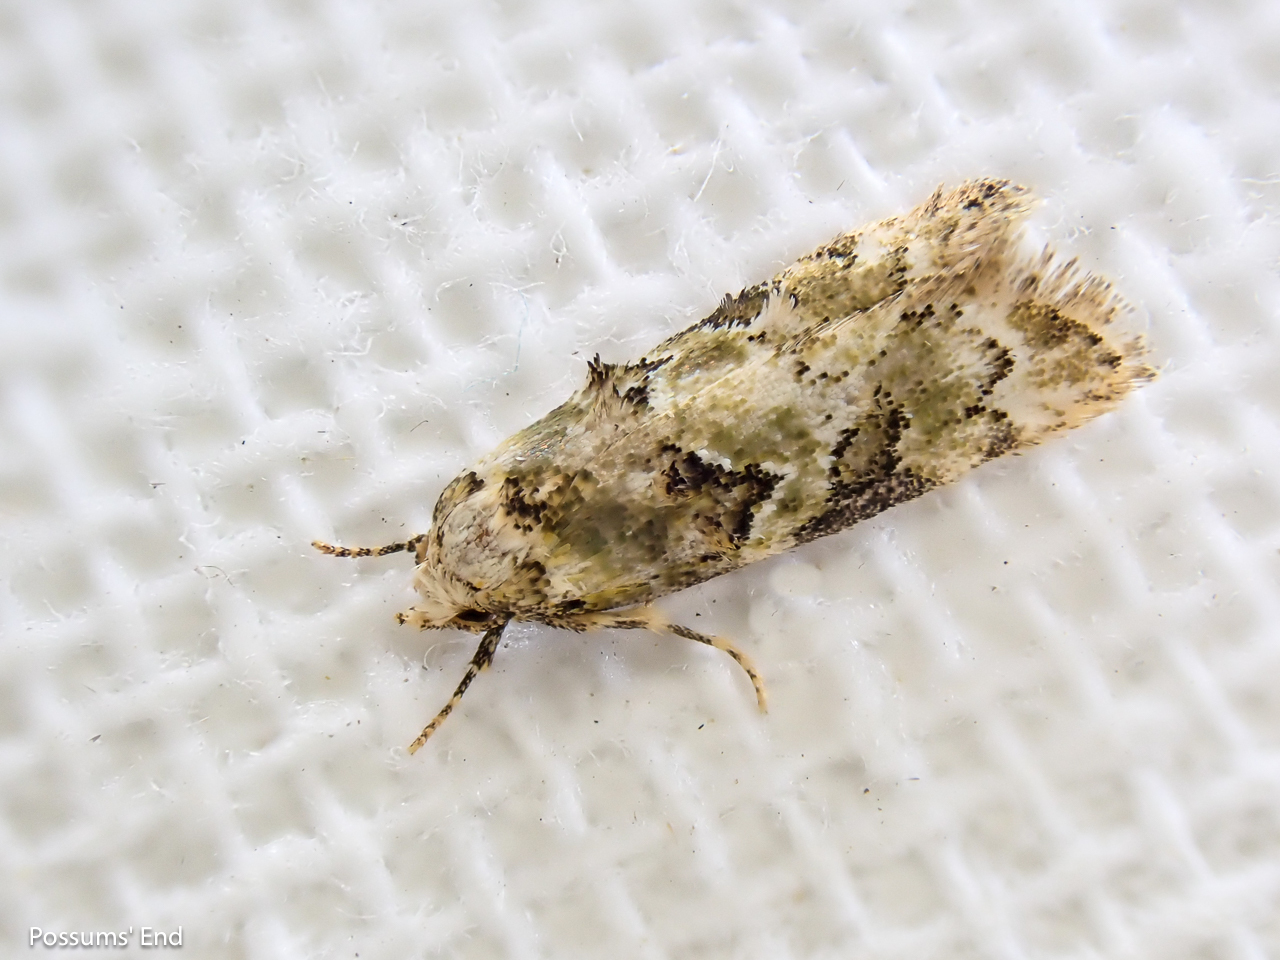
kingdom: Animalia
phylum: Arthropoda
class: Insecta
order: Lepidoptera
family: Oecophoridae
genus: Trachypepla
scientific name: Trachypepla protochlora
